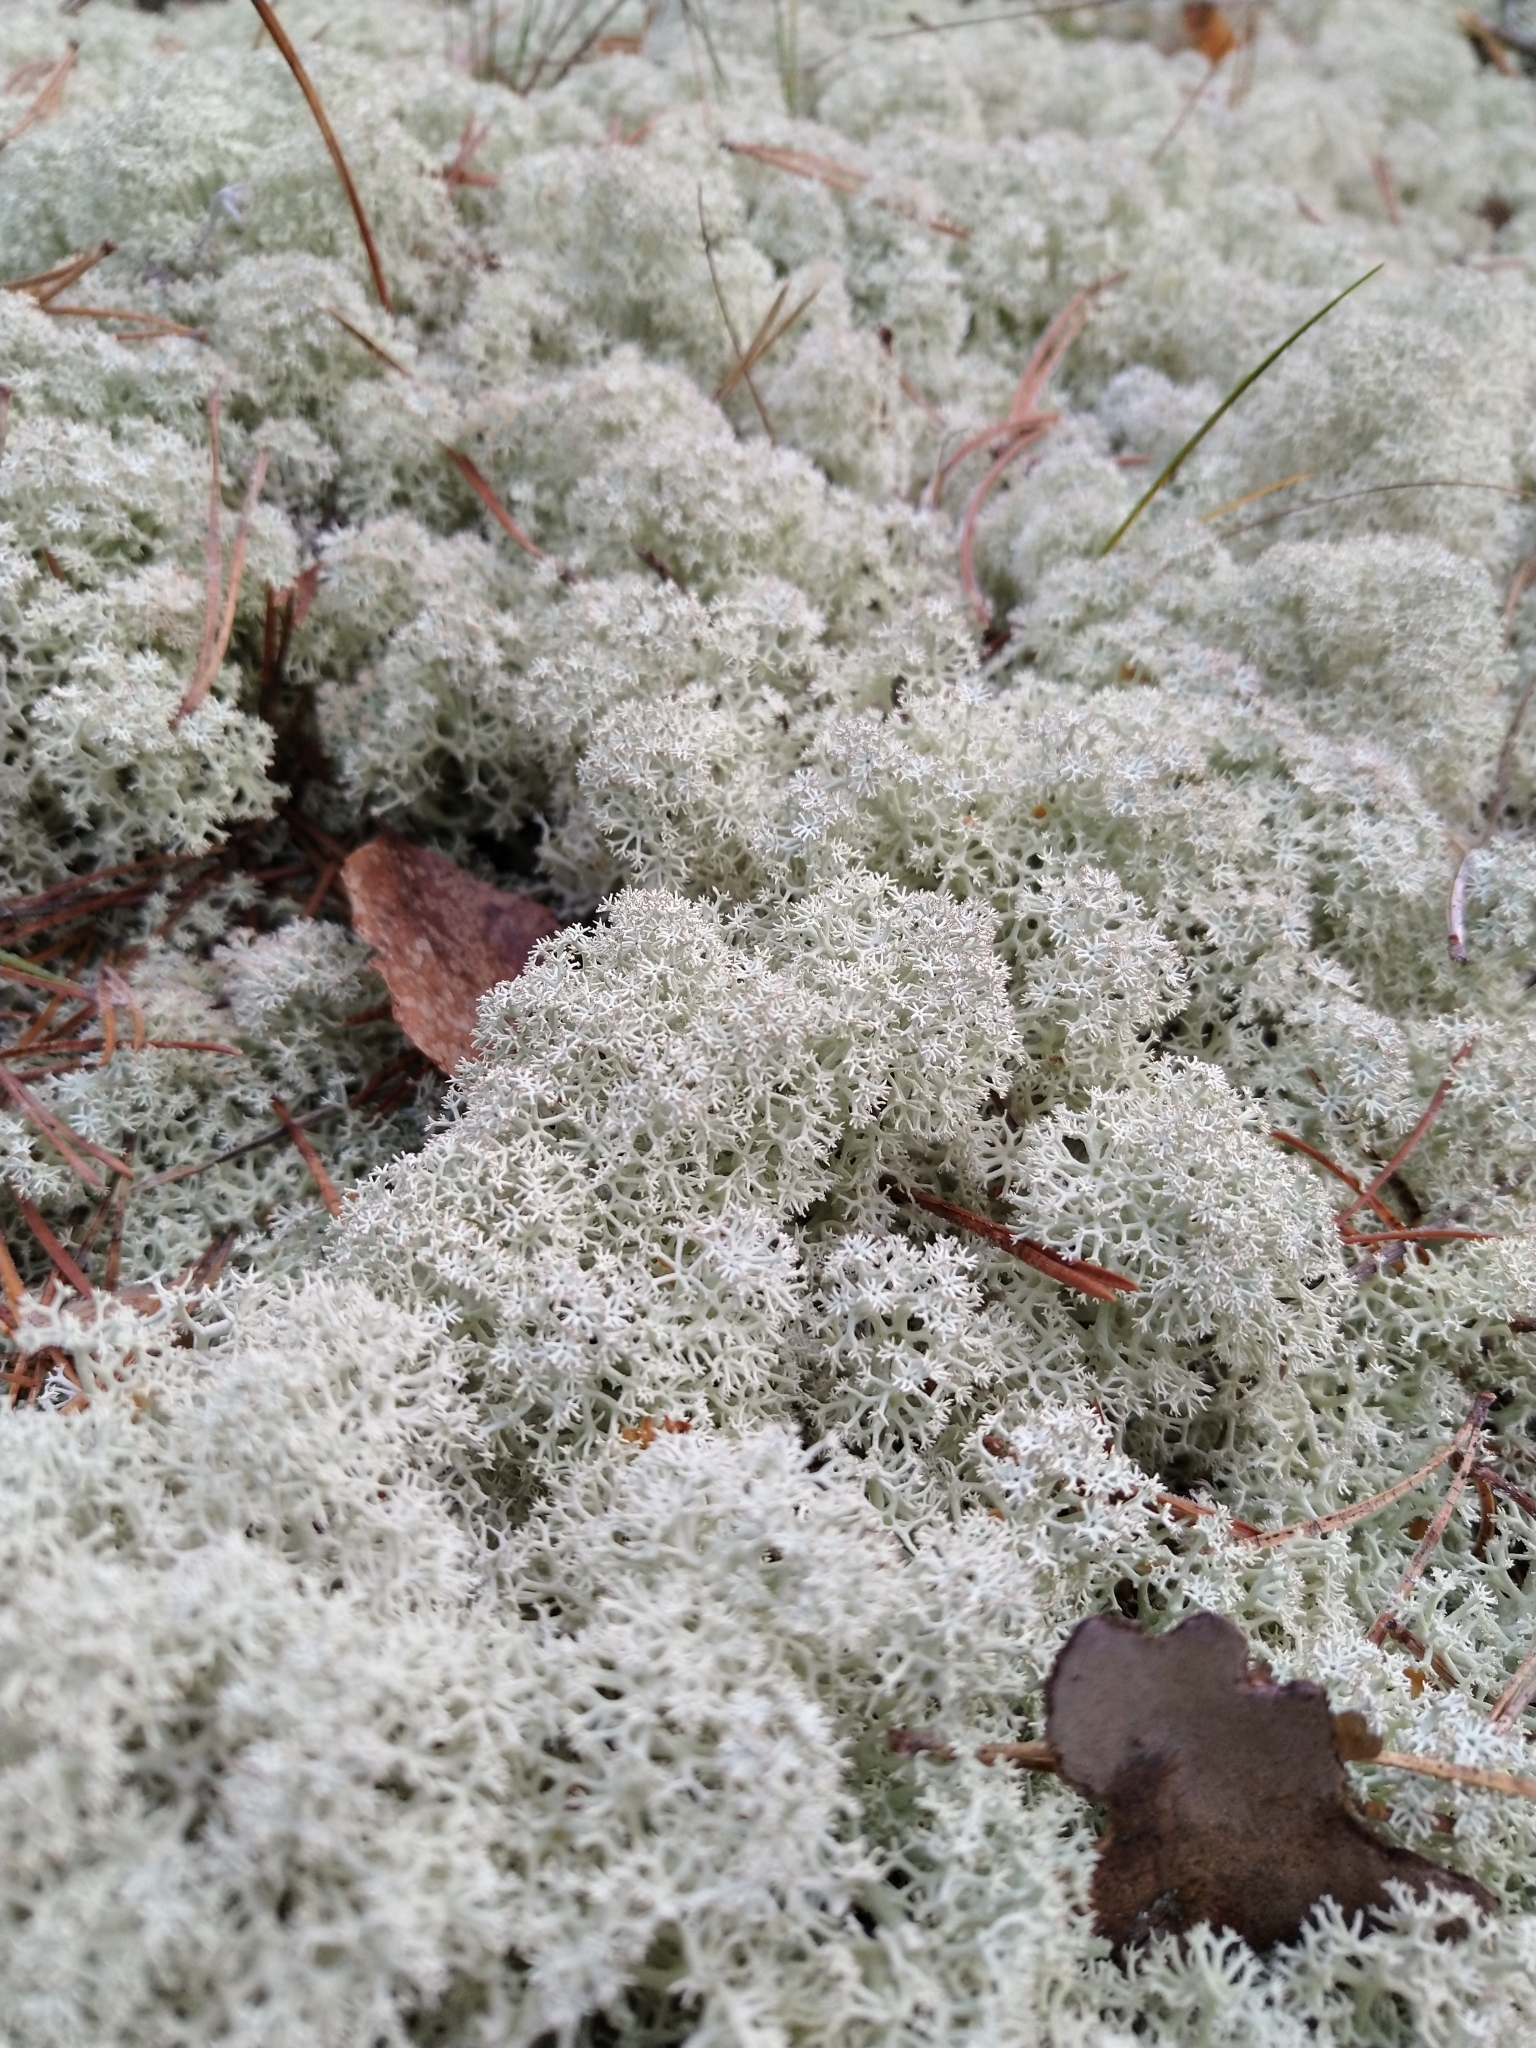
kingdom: Fungi
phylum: Ascomycota
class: Lecanoromycetes
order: Lecanorales
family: Cladoniaceae
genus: Cladonia
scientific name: Cladonia stellaris
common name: Star-tipped reindeer lichen
